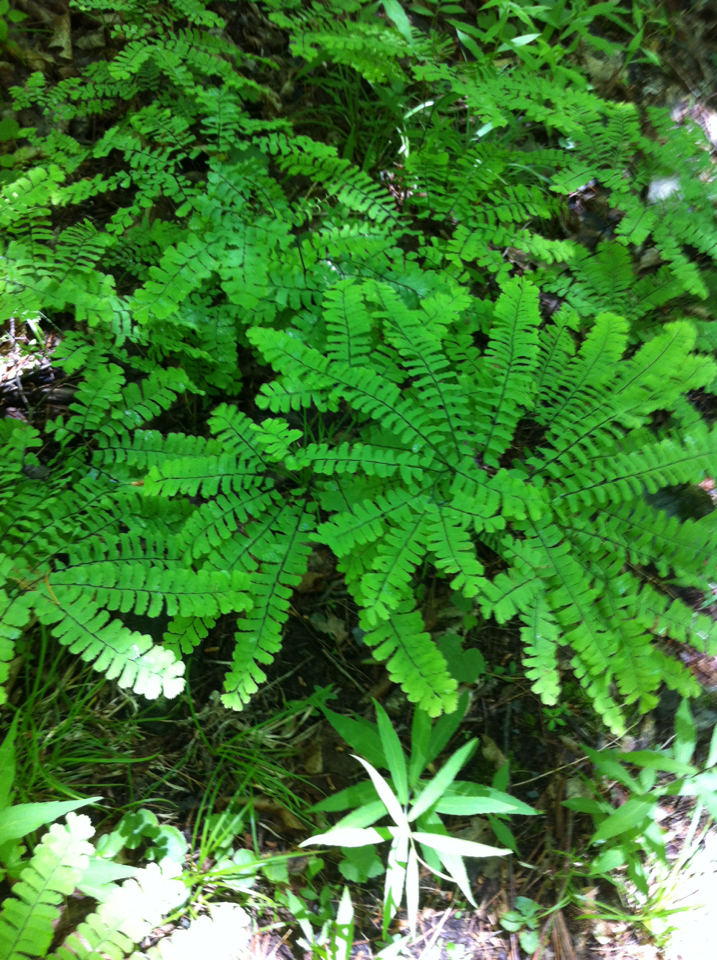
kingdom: Plantae
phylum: Tracheophyta
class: Polypodiopsida
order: Polypodiales
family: Pteridaceae
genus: Adiantum
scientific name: Adiantum pedatum
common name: Five-finger fern
